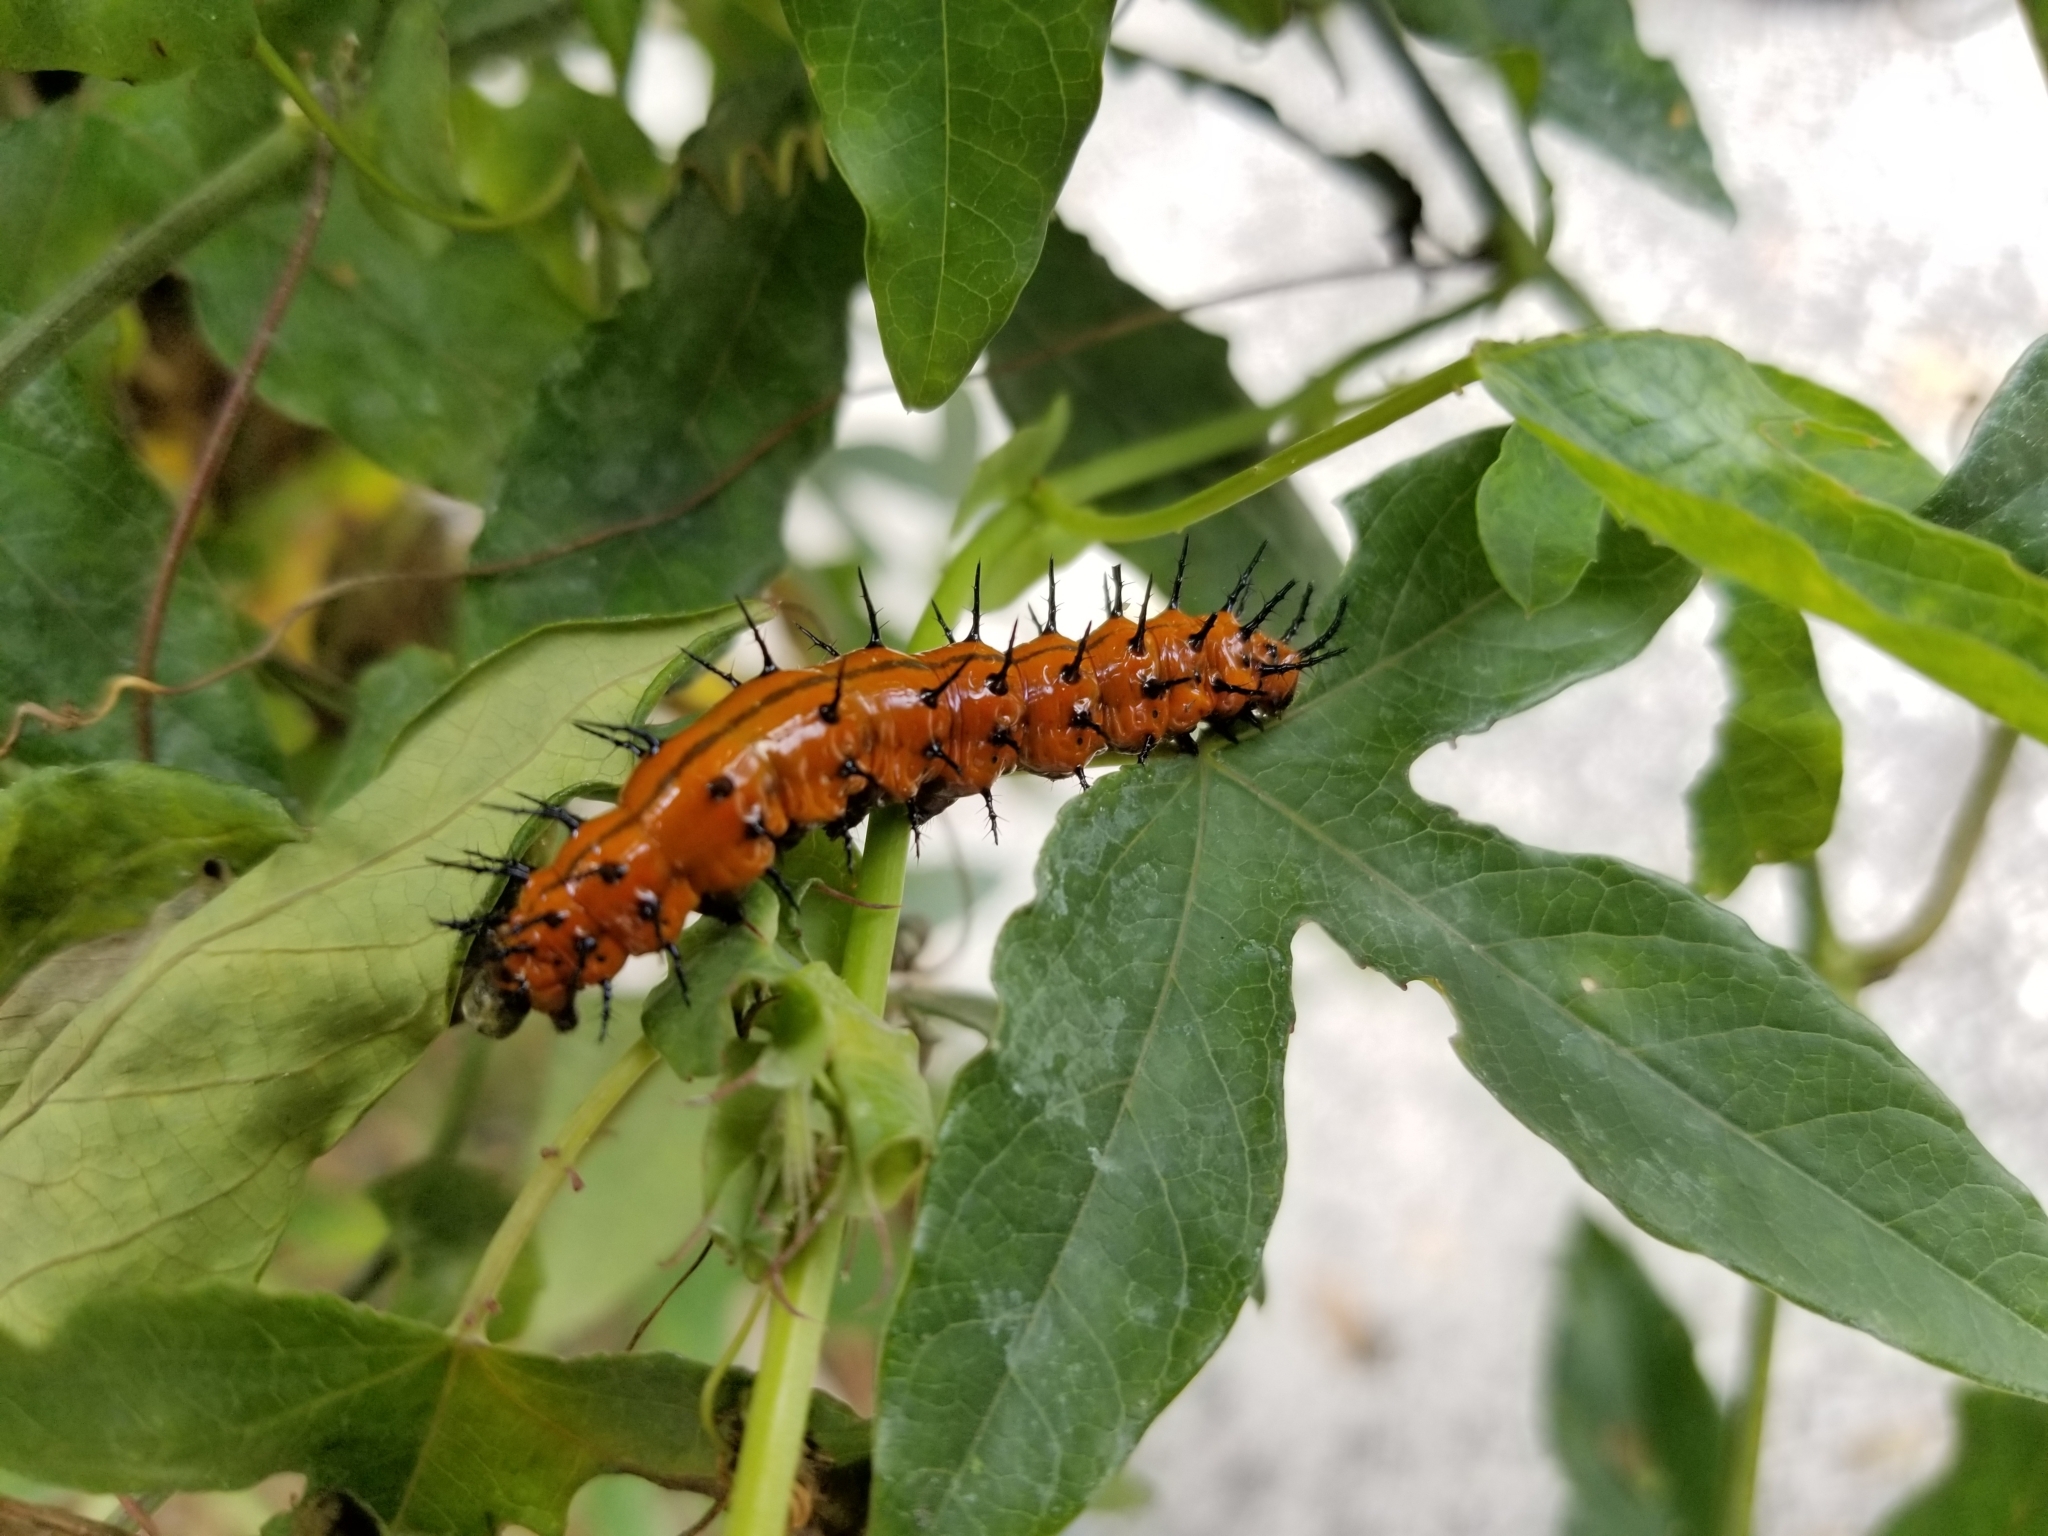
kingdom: Animalia
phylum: Arthropoda
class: Insecta
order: Lepidoptera
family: Nymphalidae
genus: Dione
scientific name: Dione vanillae
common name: Gulf fritillary
